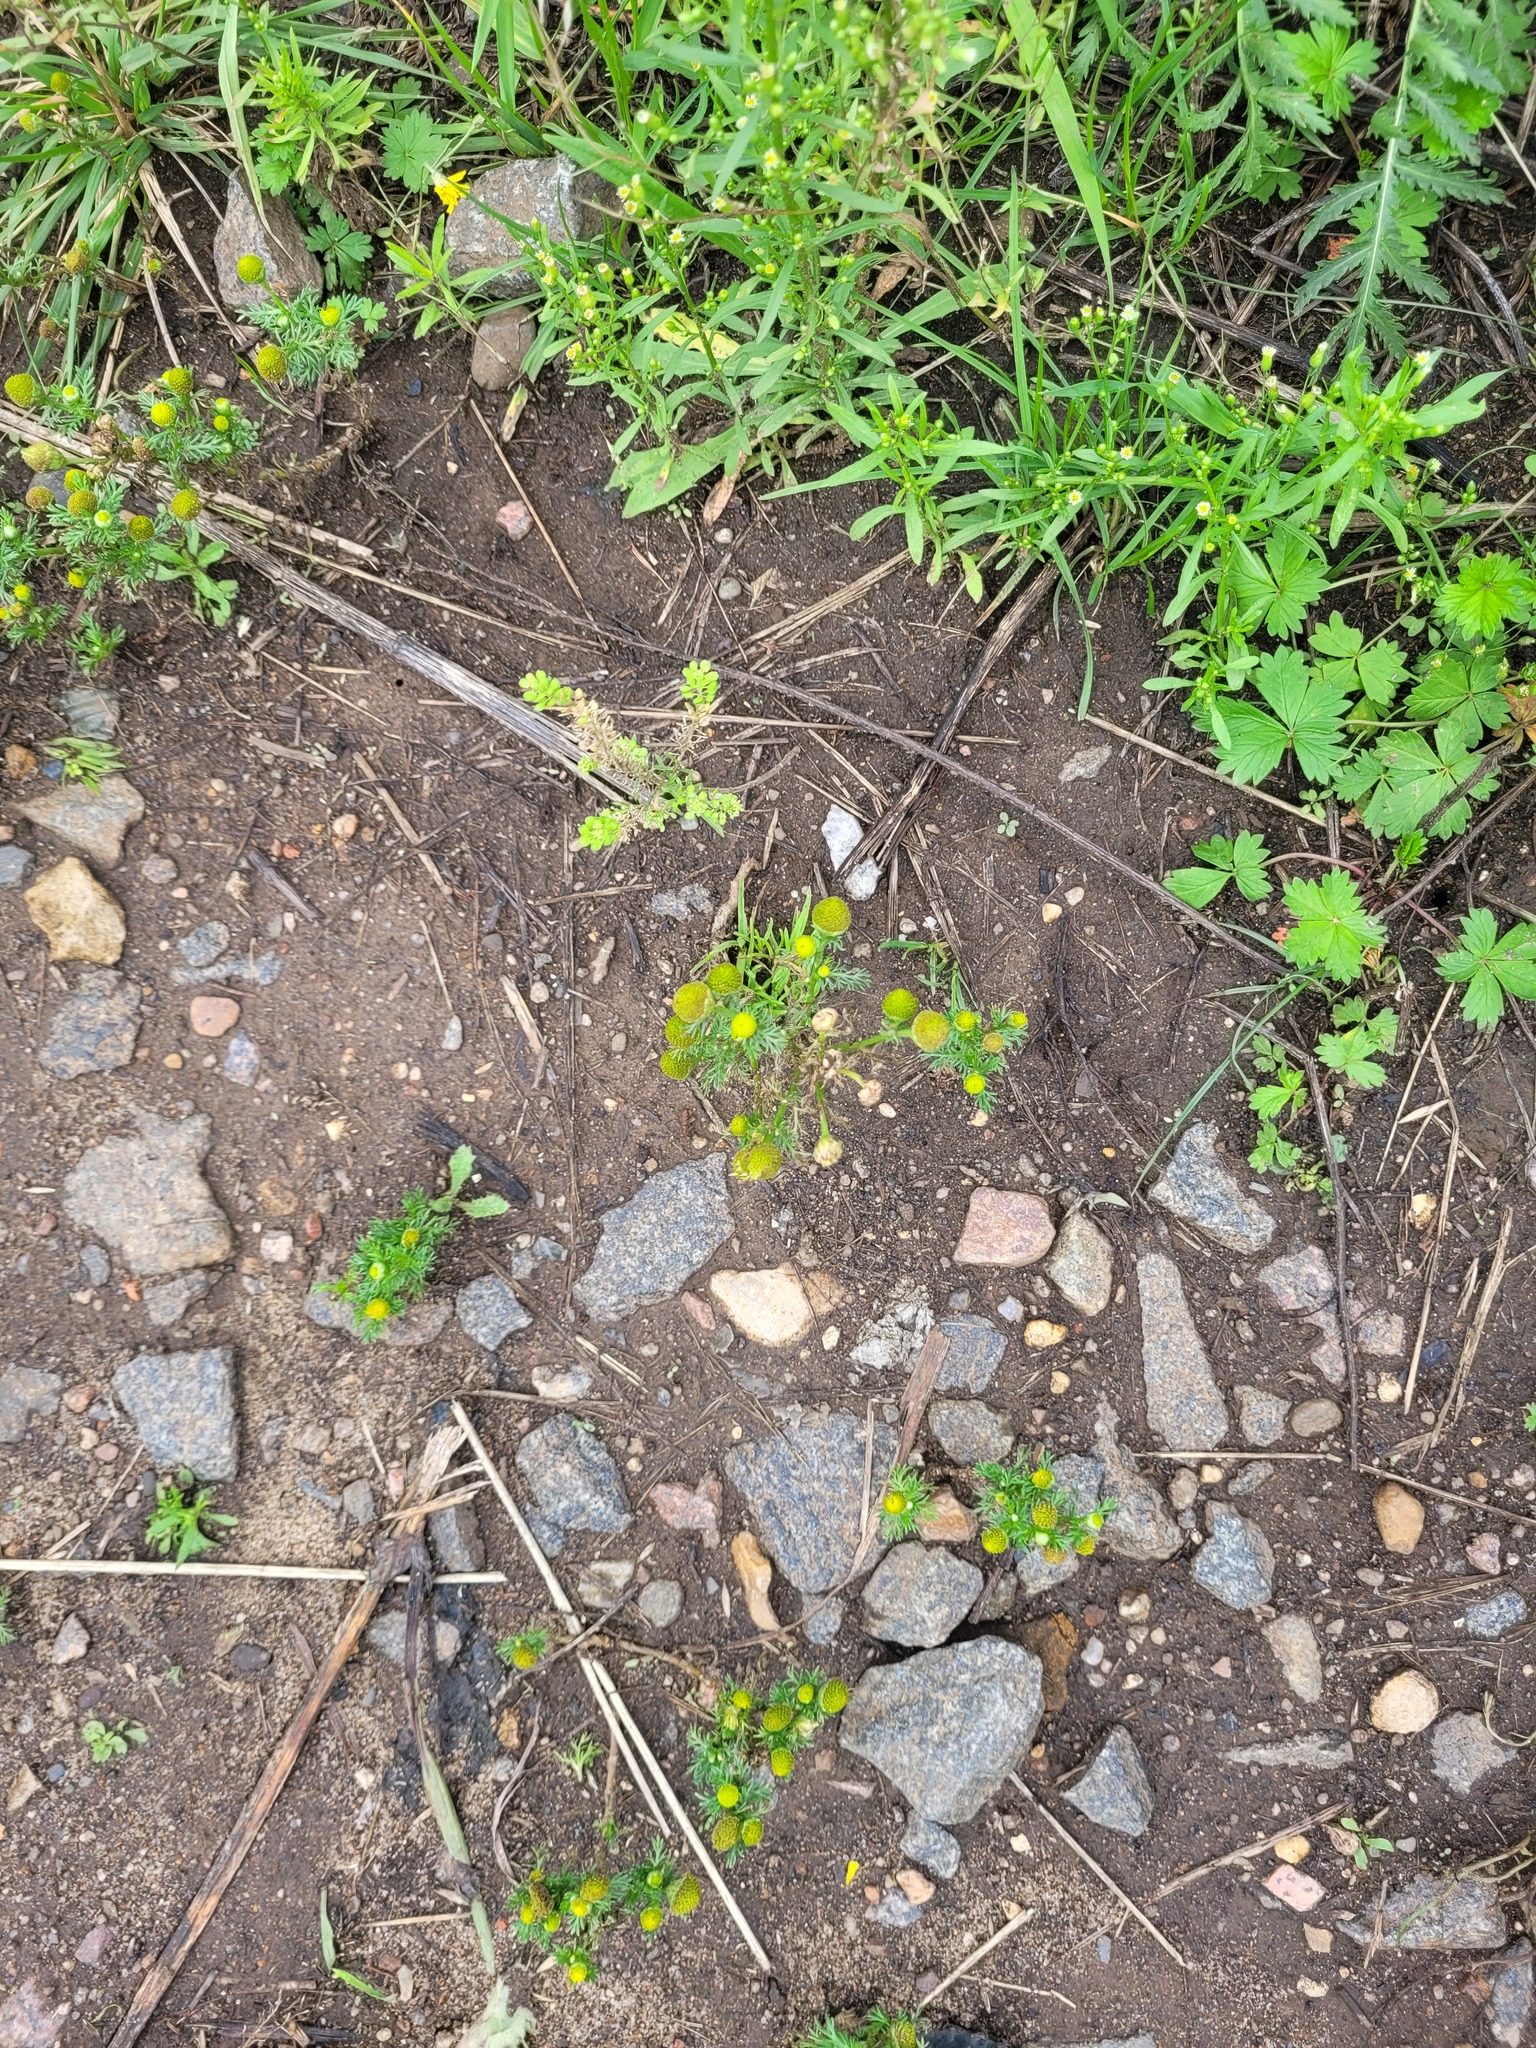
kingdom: Plantae
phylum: Tracheophyta
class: Magnoliopsida
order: Asterales
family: Asteraceae
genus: Matricaria
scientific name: Matricaria discoidea
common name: Disc mayweed
